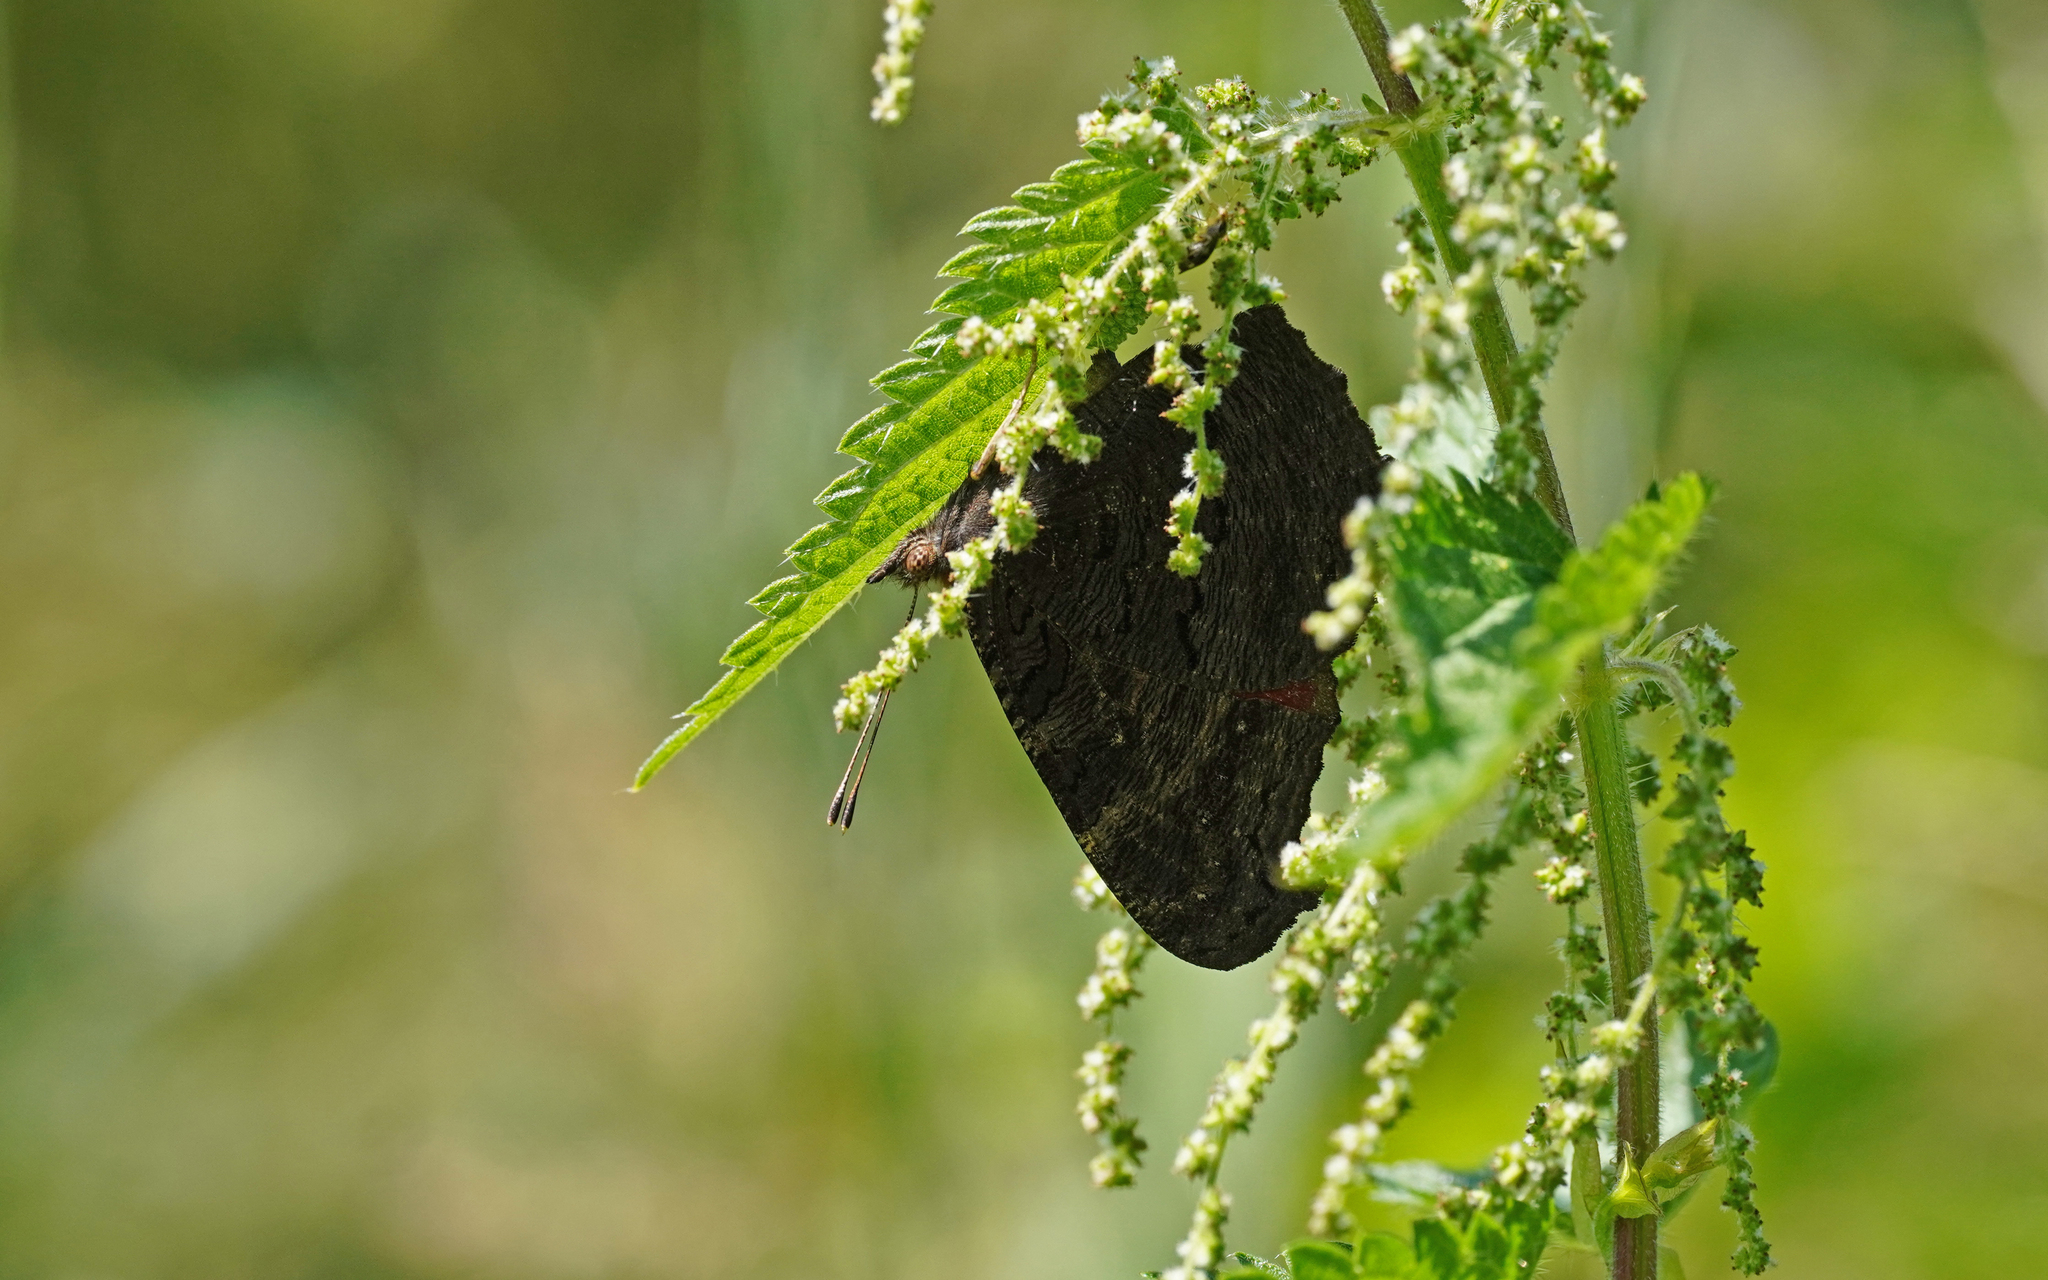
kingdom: Animalia
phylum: Arthropoda
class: Insecta
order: Lepidoptera
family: Nymphalidae
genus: Aglais
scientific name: Aglais io
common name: Peacock
